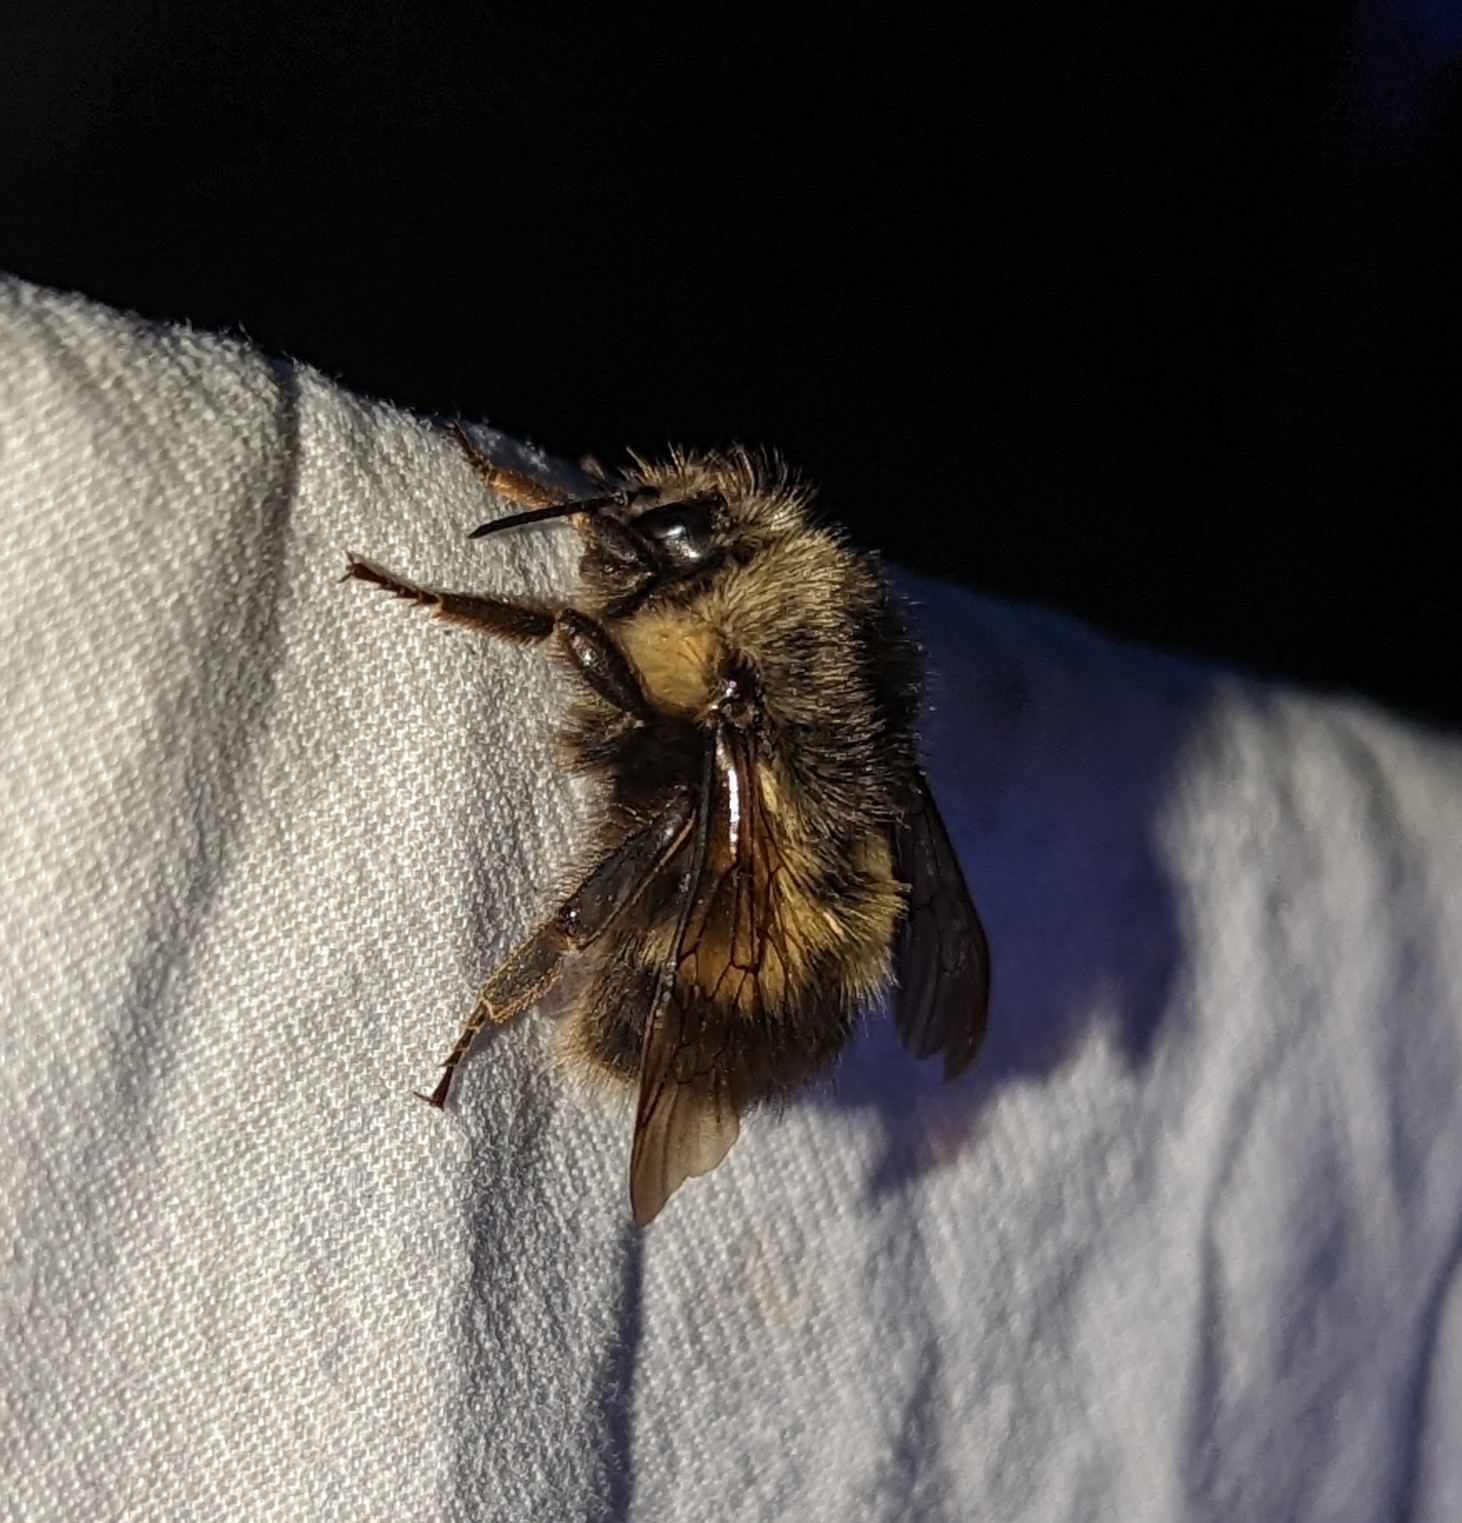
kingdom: Animalia
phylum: Arthropoda
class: Insecta
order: Hymenoptera
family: Apidae
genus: Bombus
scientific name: Bombus sitkensis
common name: Sitka bumble bee
